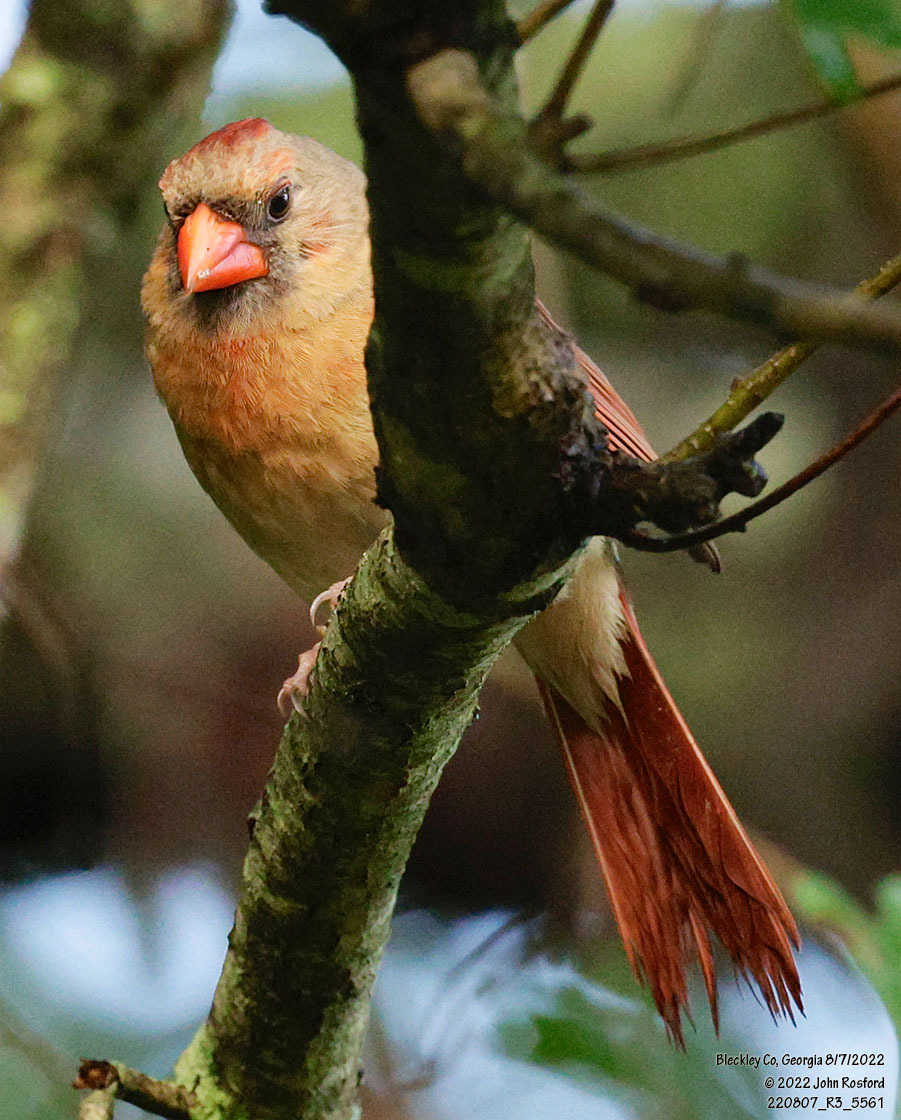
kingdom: Animalia
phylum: Chordata
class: Aves
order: Passeriformes
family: Cardinalidae
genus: Cardinalis
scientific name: Cardinalis cardinalis
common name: Northern cardinal
